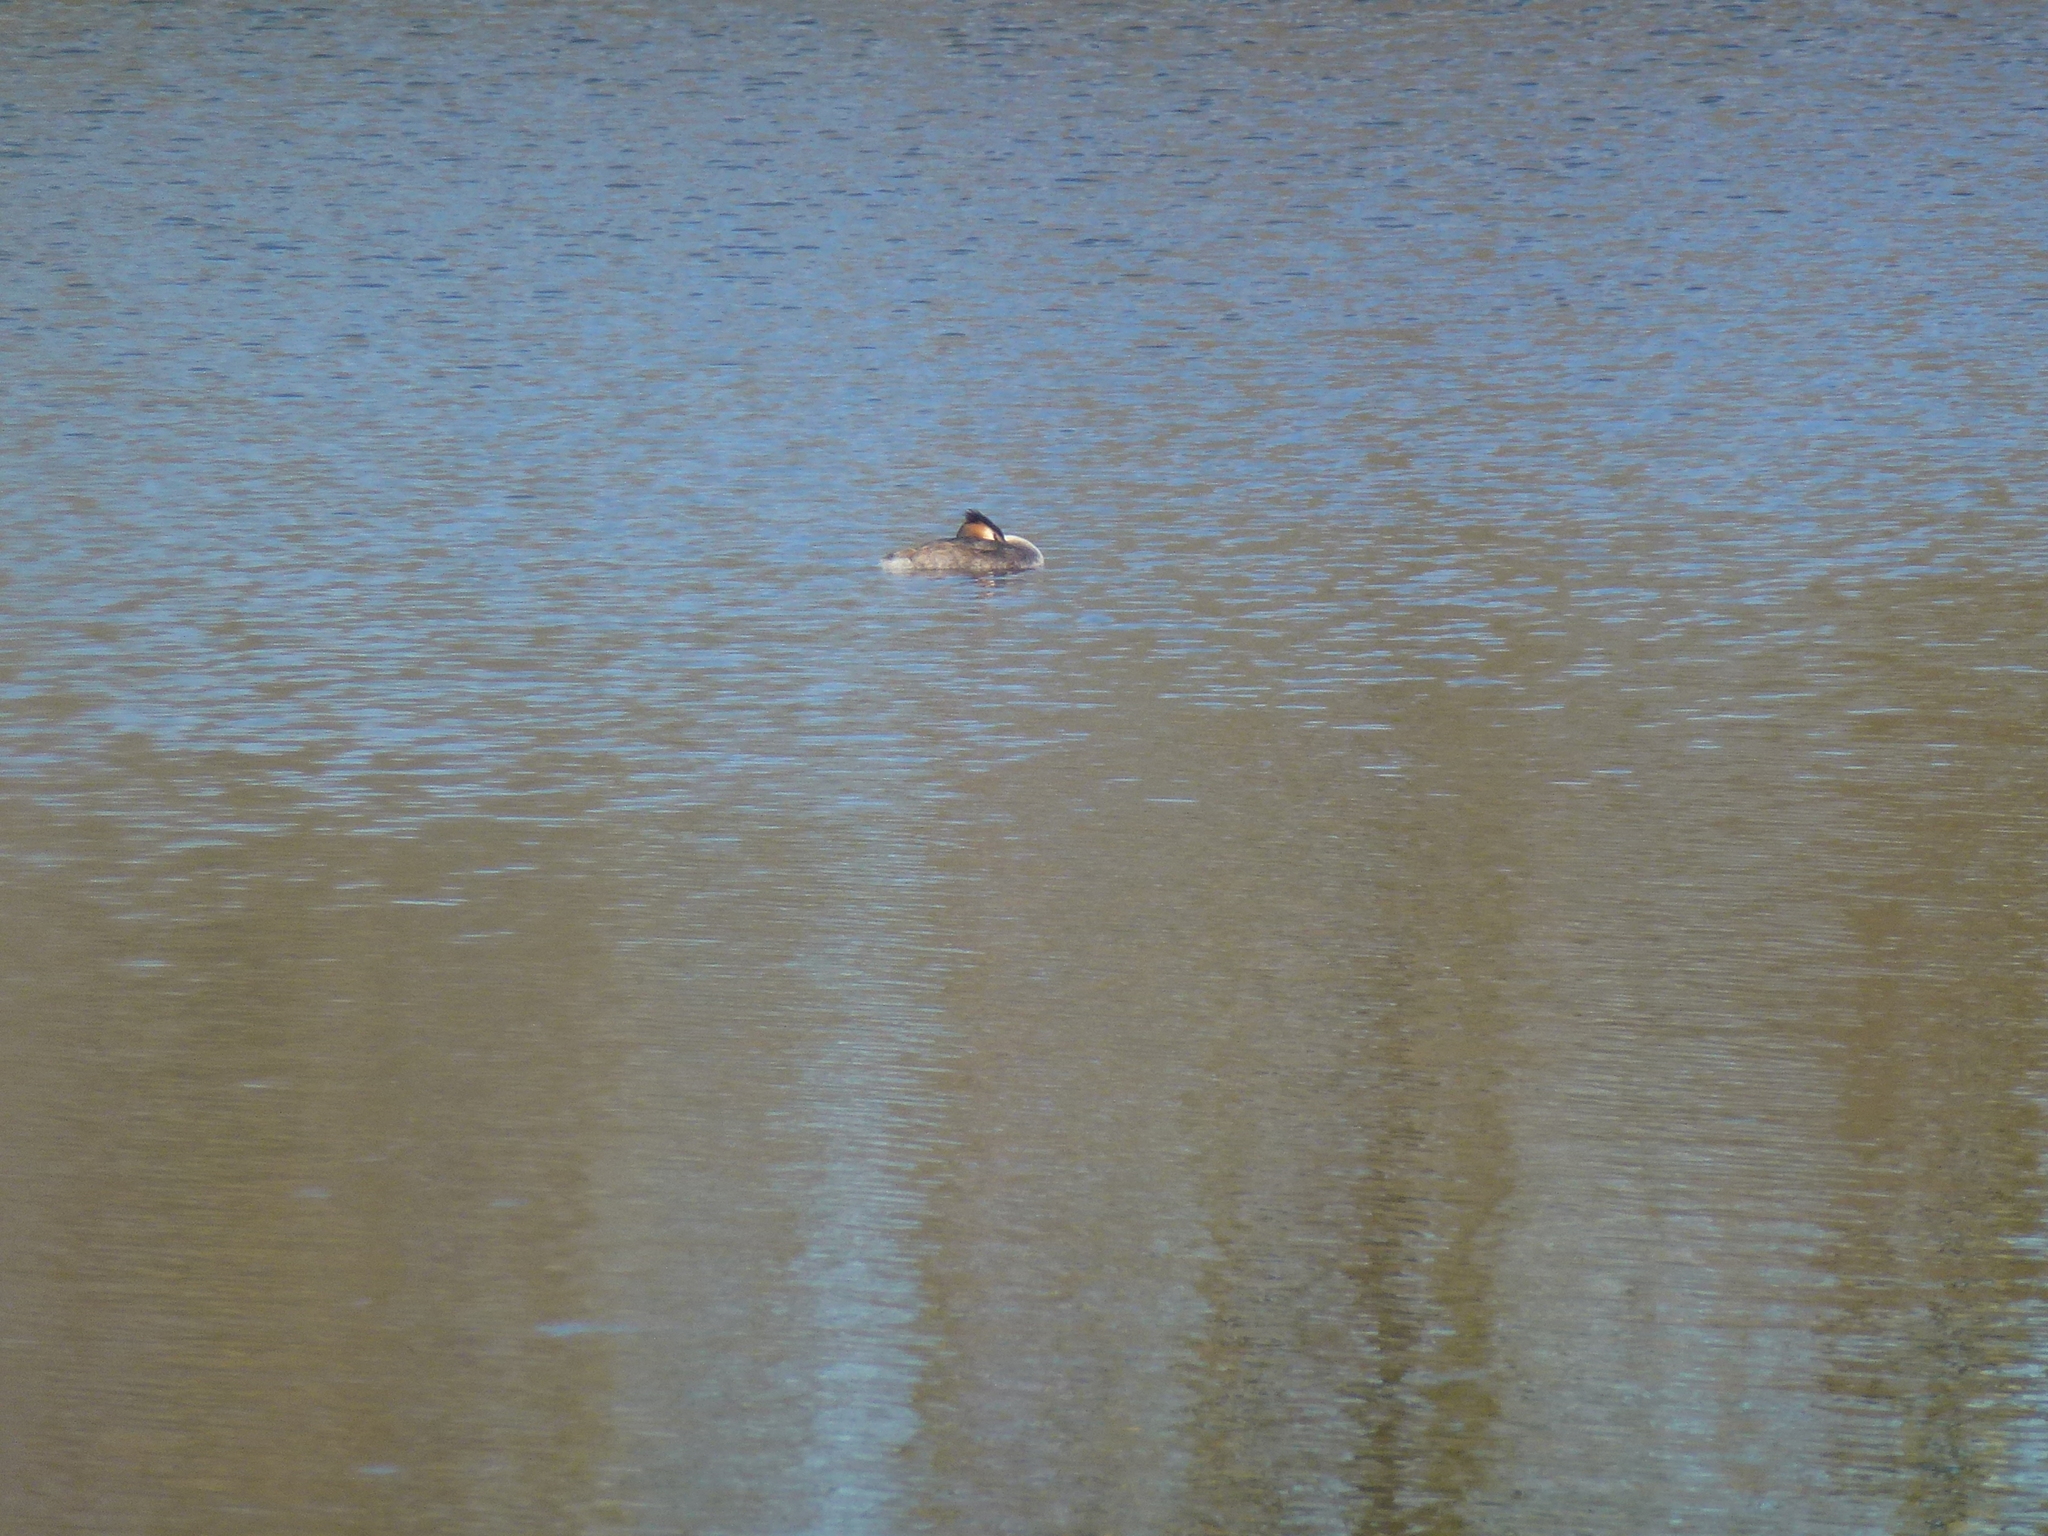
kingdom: Animalia
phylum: Chordata
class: Aves
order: Podicipediformes
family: Podicipedidae
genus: Podiceps
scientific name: Podiceps cristatus
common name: Great crested grebe
